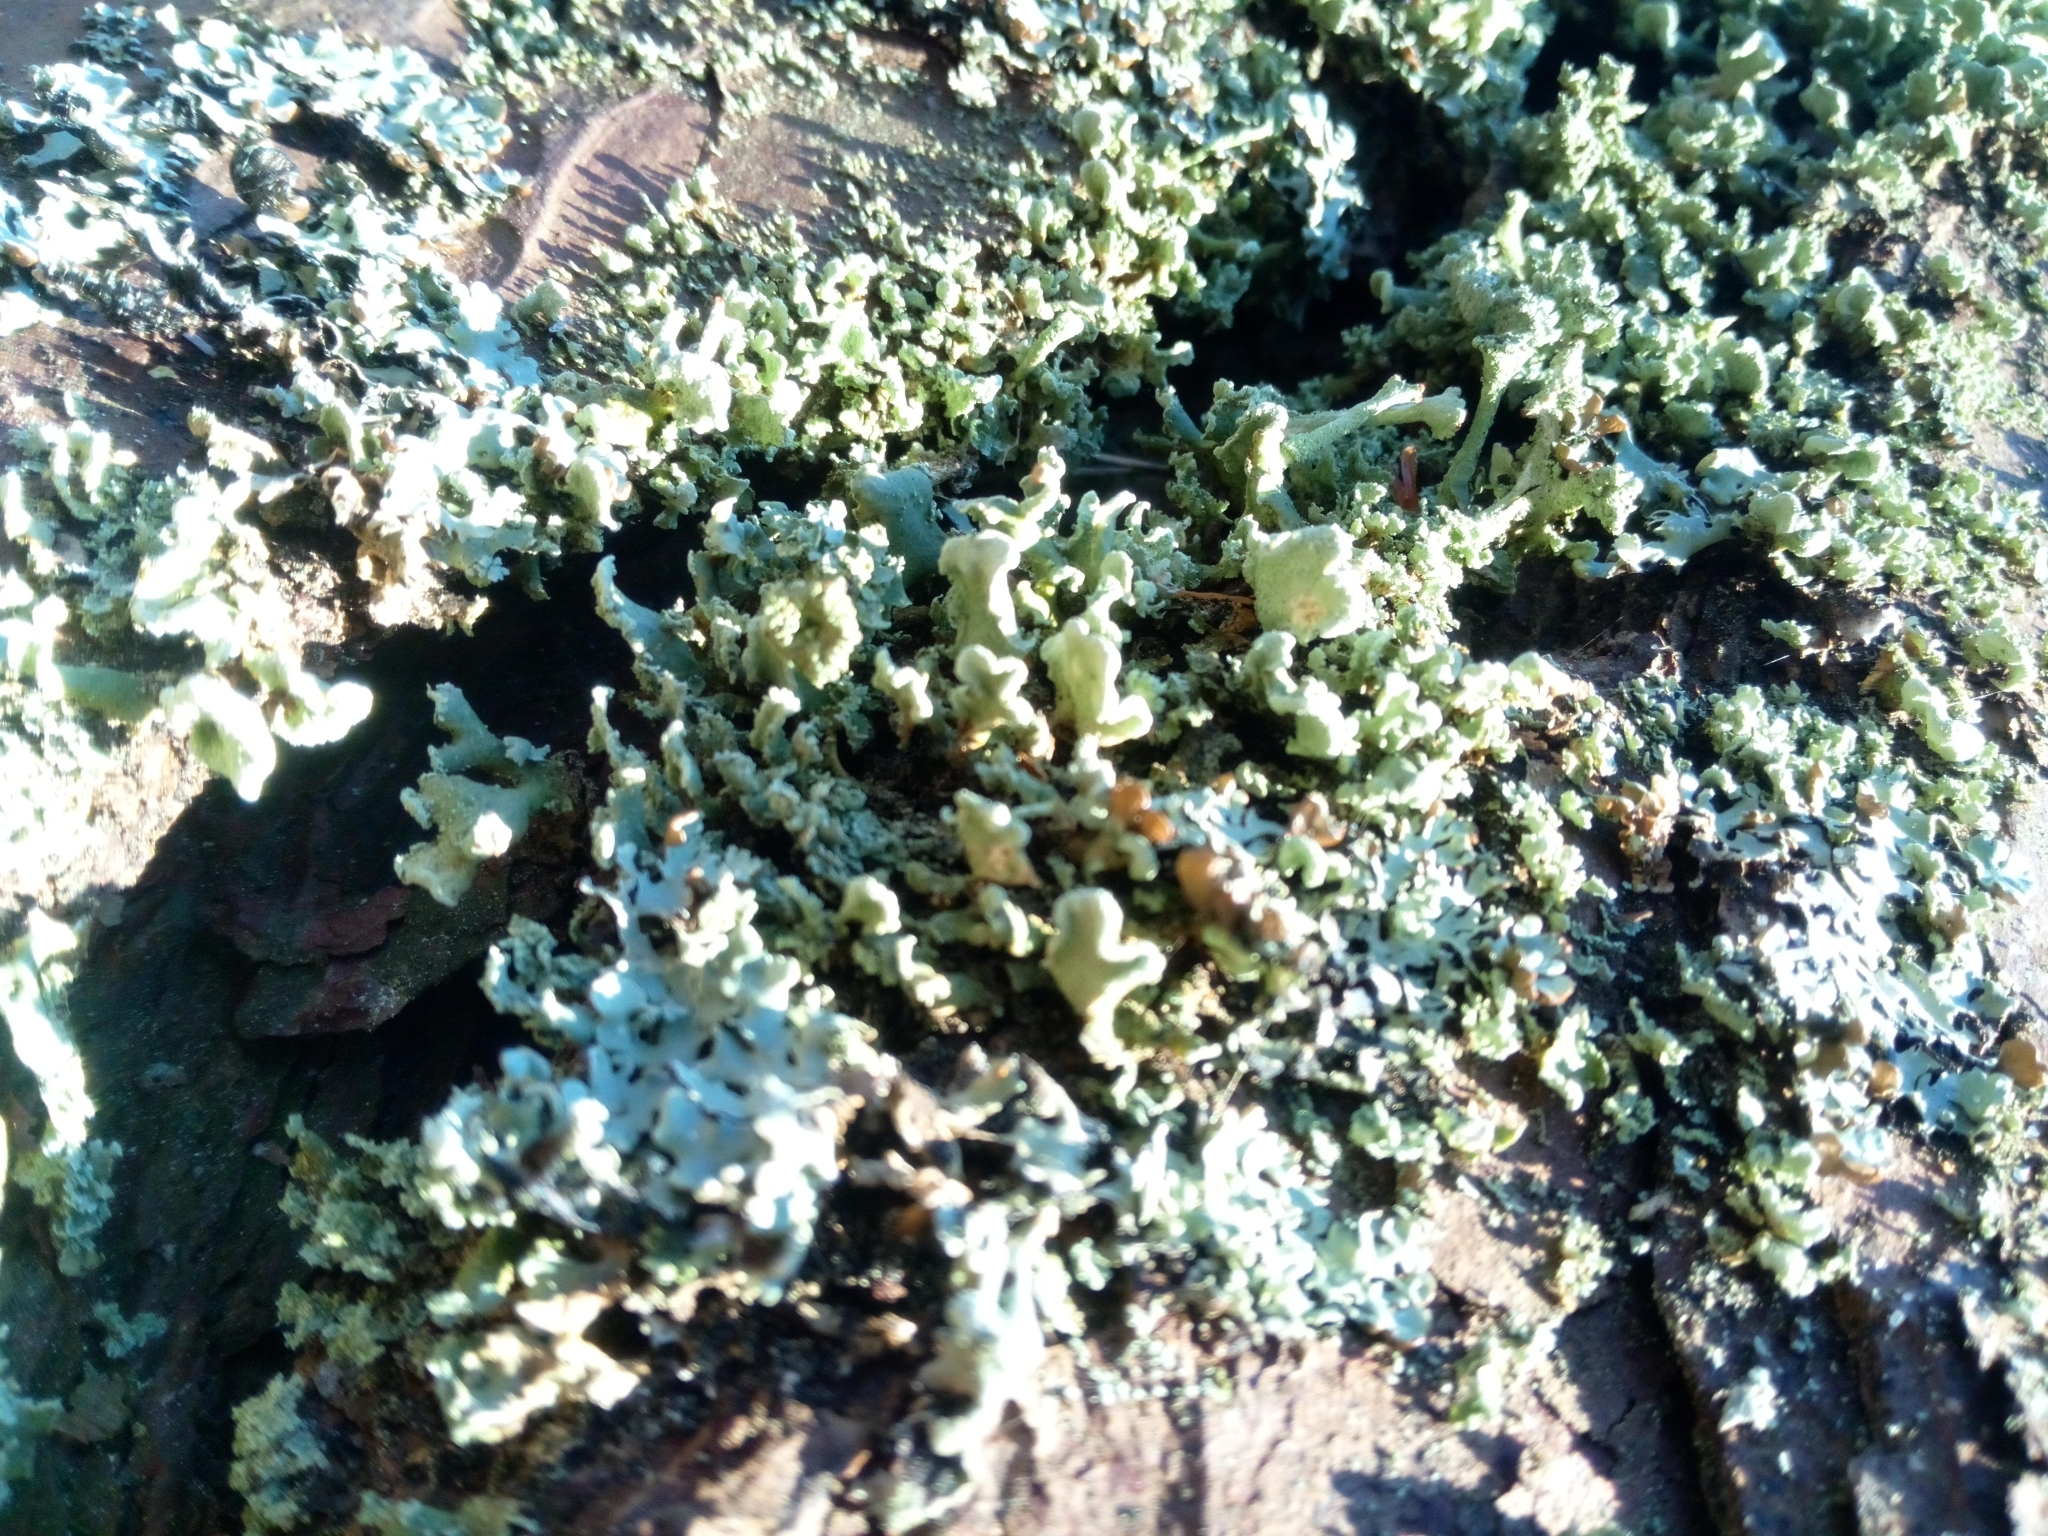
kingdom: Fungi
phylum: Ascomycota
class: Lecanoromycetes
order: Lecanorales
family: Parmeliaceae
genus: Hypogymnia
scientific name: Hypogymnia physodes
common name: Dark crottle
